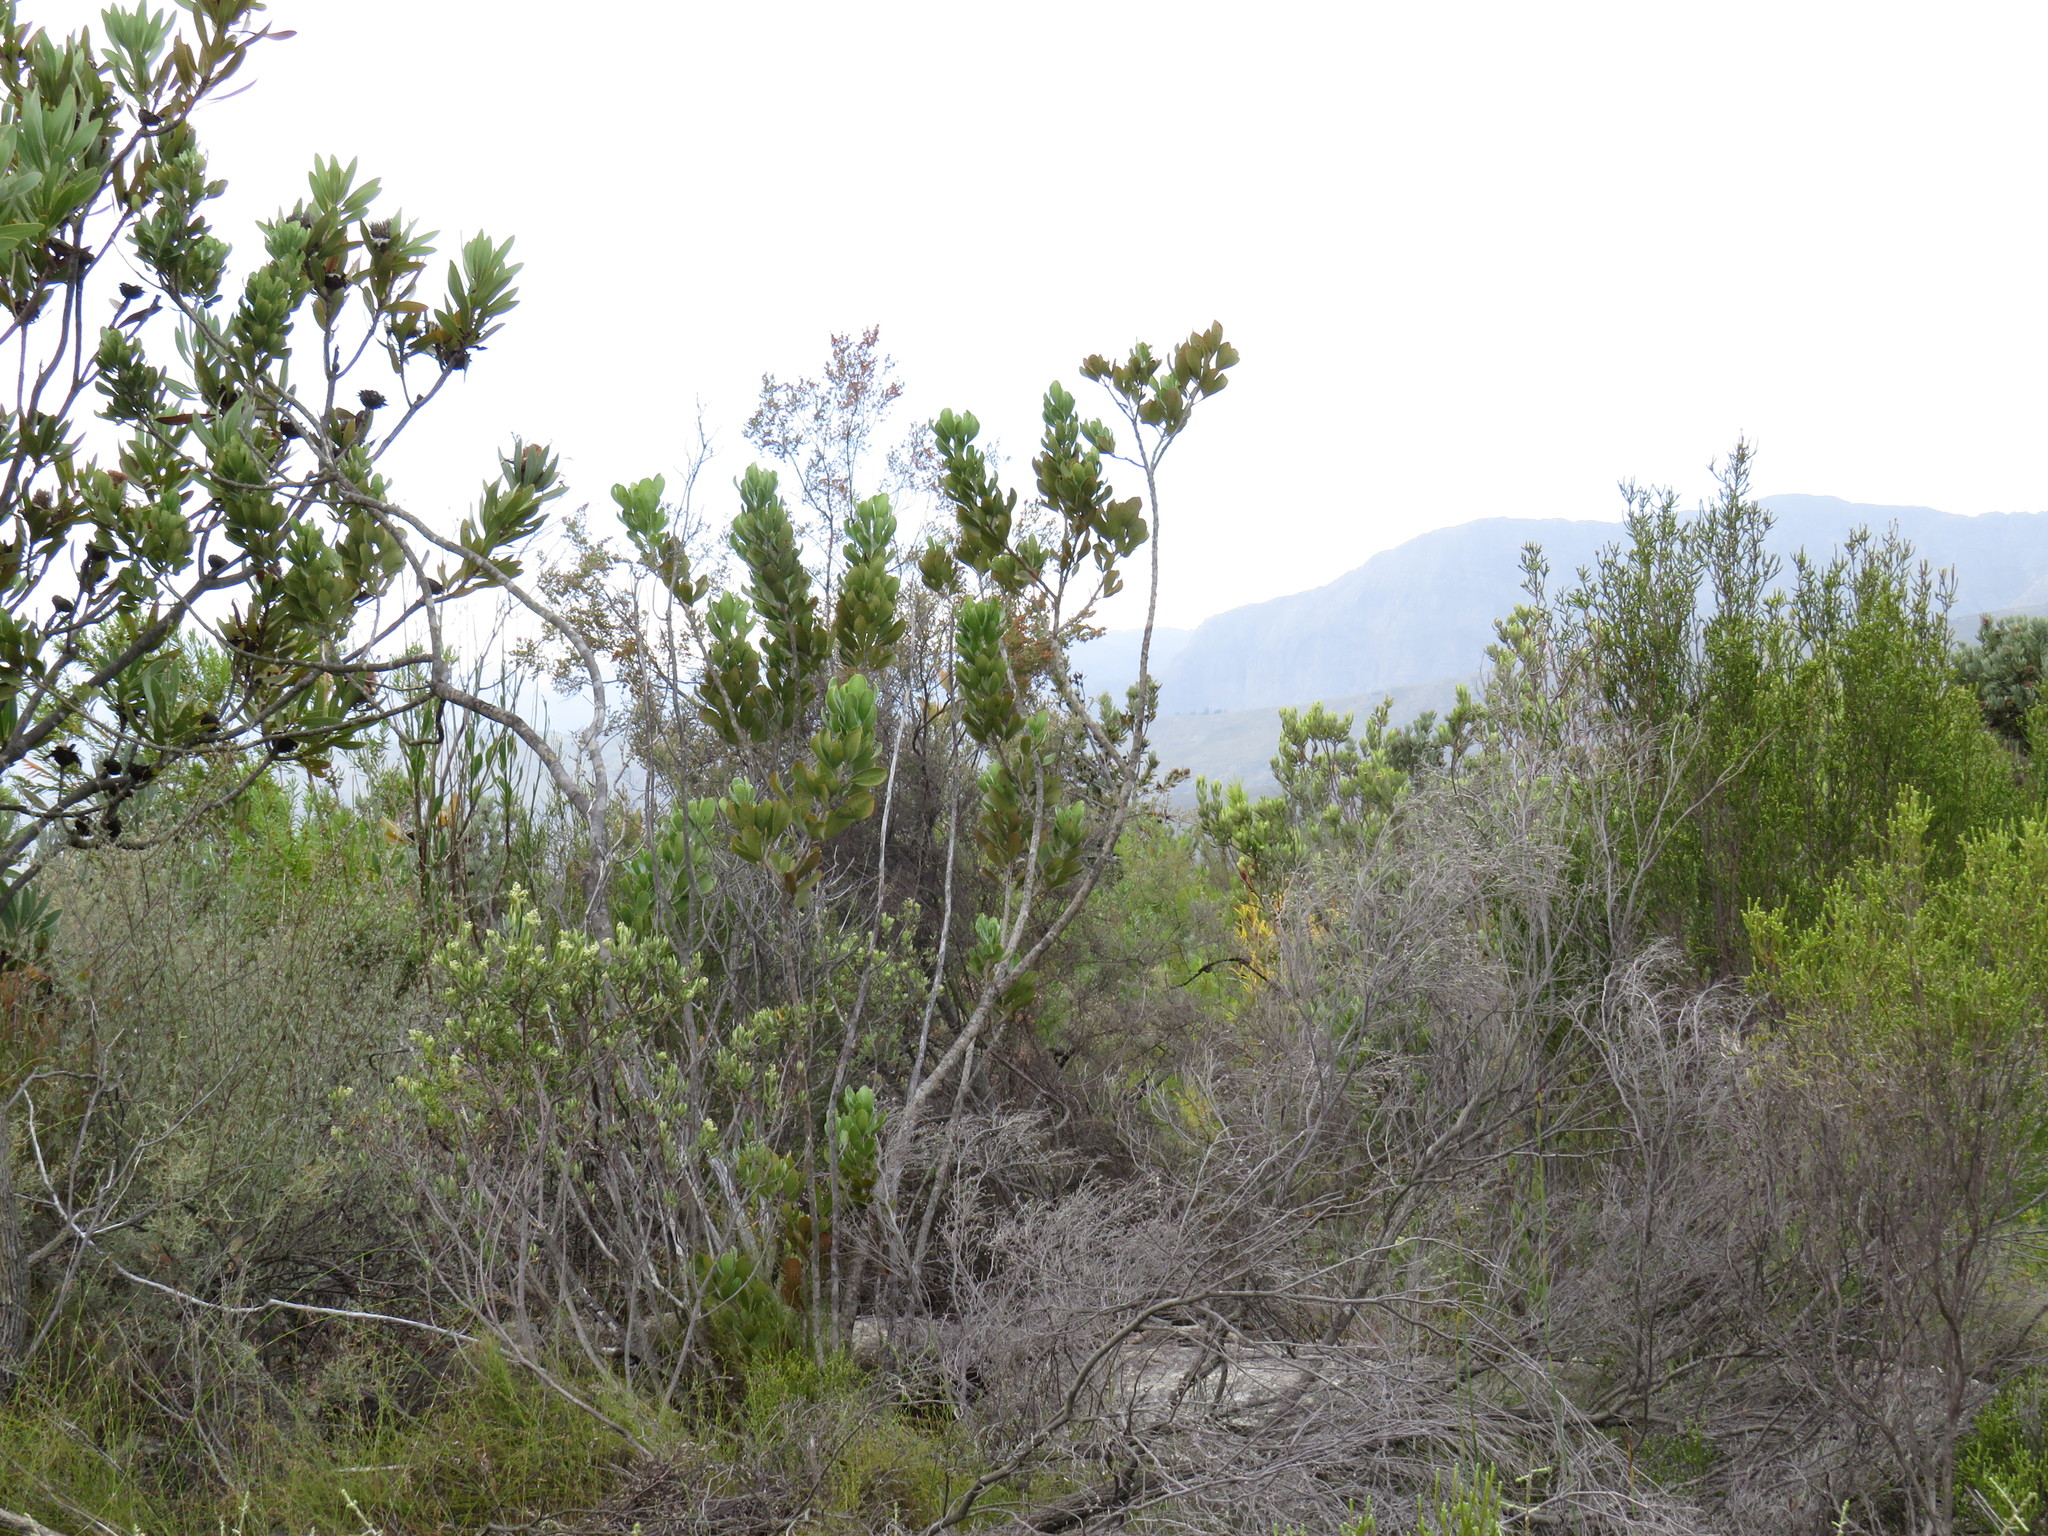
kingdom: Plantae
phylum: Tracheophyta
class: Magnoliopsida
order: Sapindales
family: Anacardiaceae
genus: Searsia
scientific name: Searsia scytophylla
